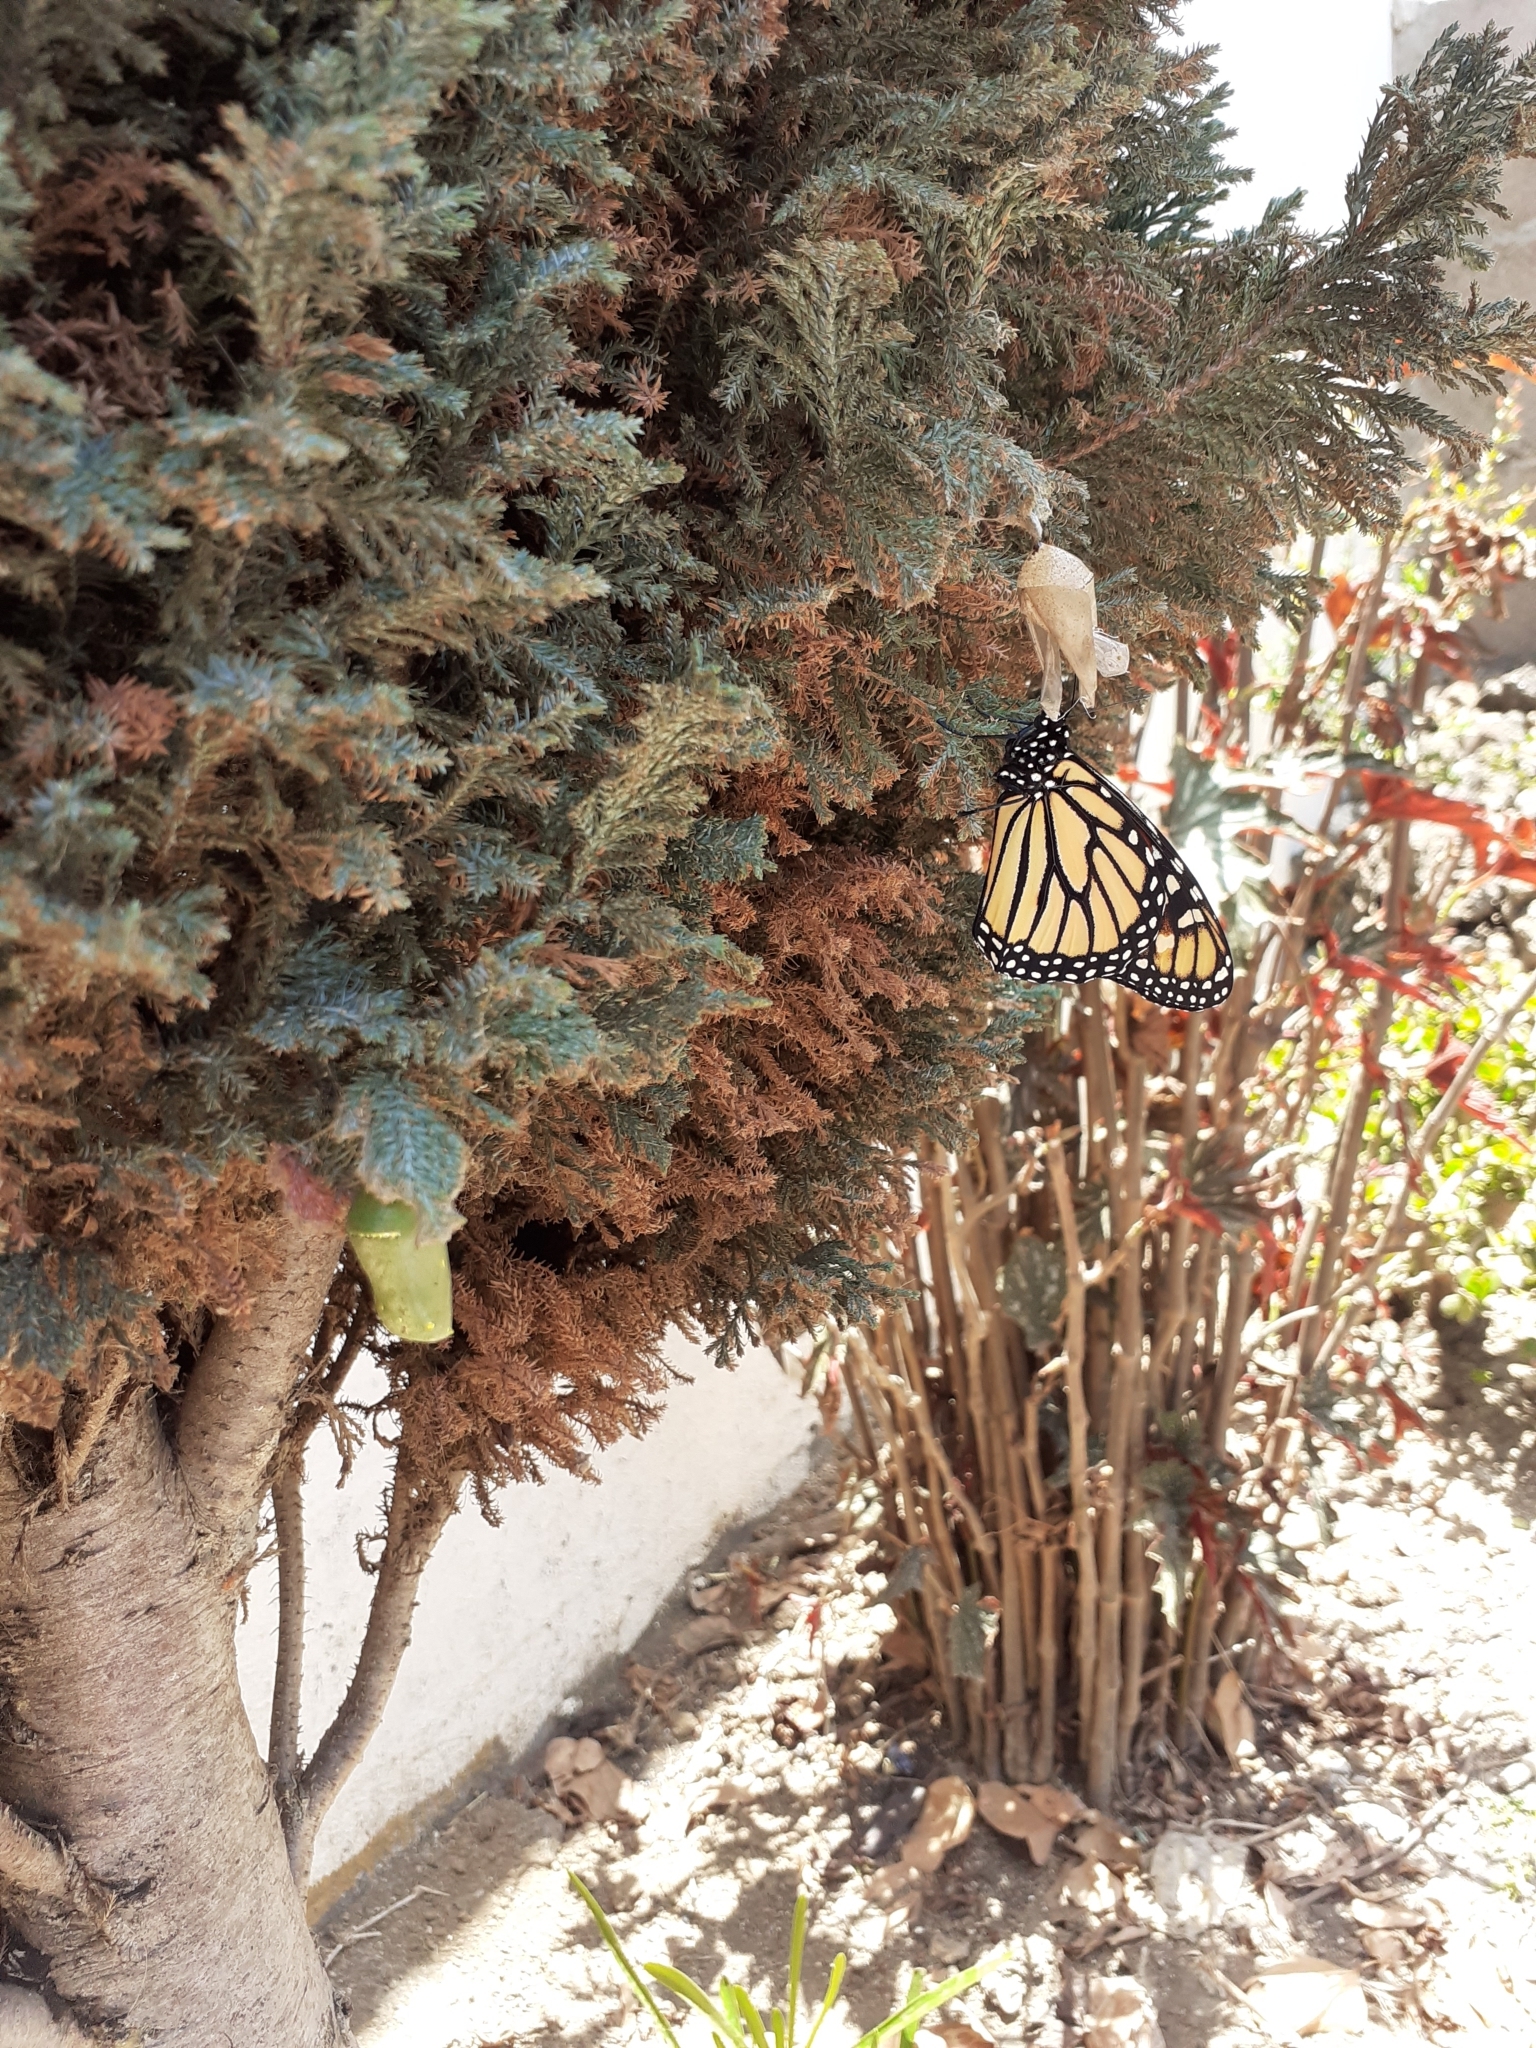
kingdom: Animalia
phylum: Arthropoda
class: Insecta
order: Lepidoptera
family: Nymphalidae
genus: Danaus
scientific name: Danaus plexippus
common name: Monarch
